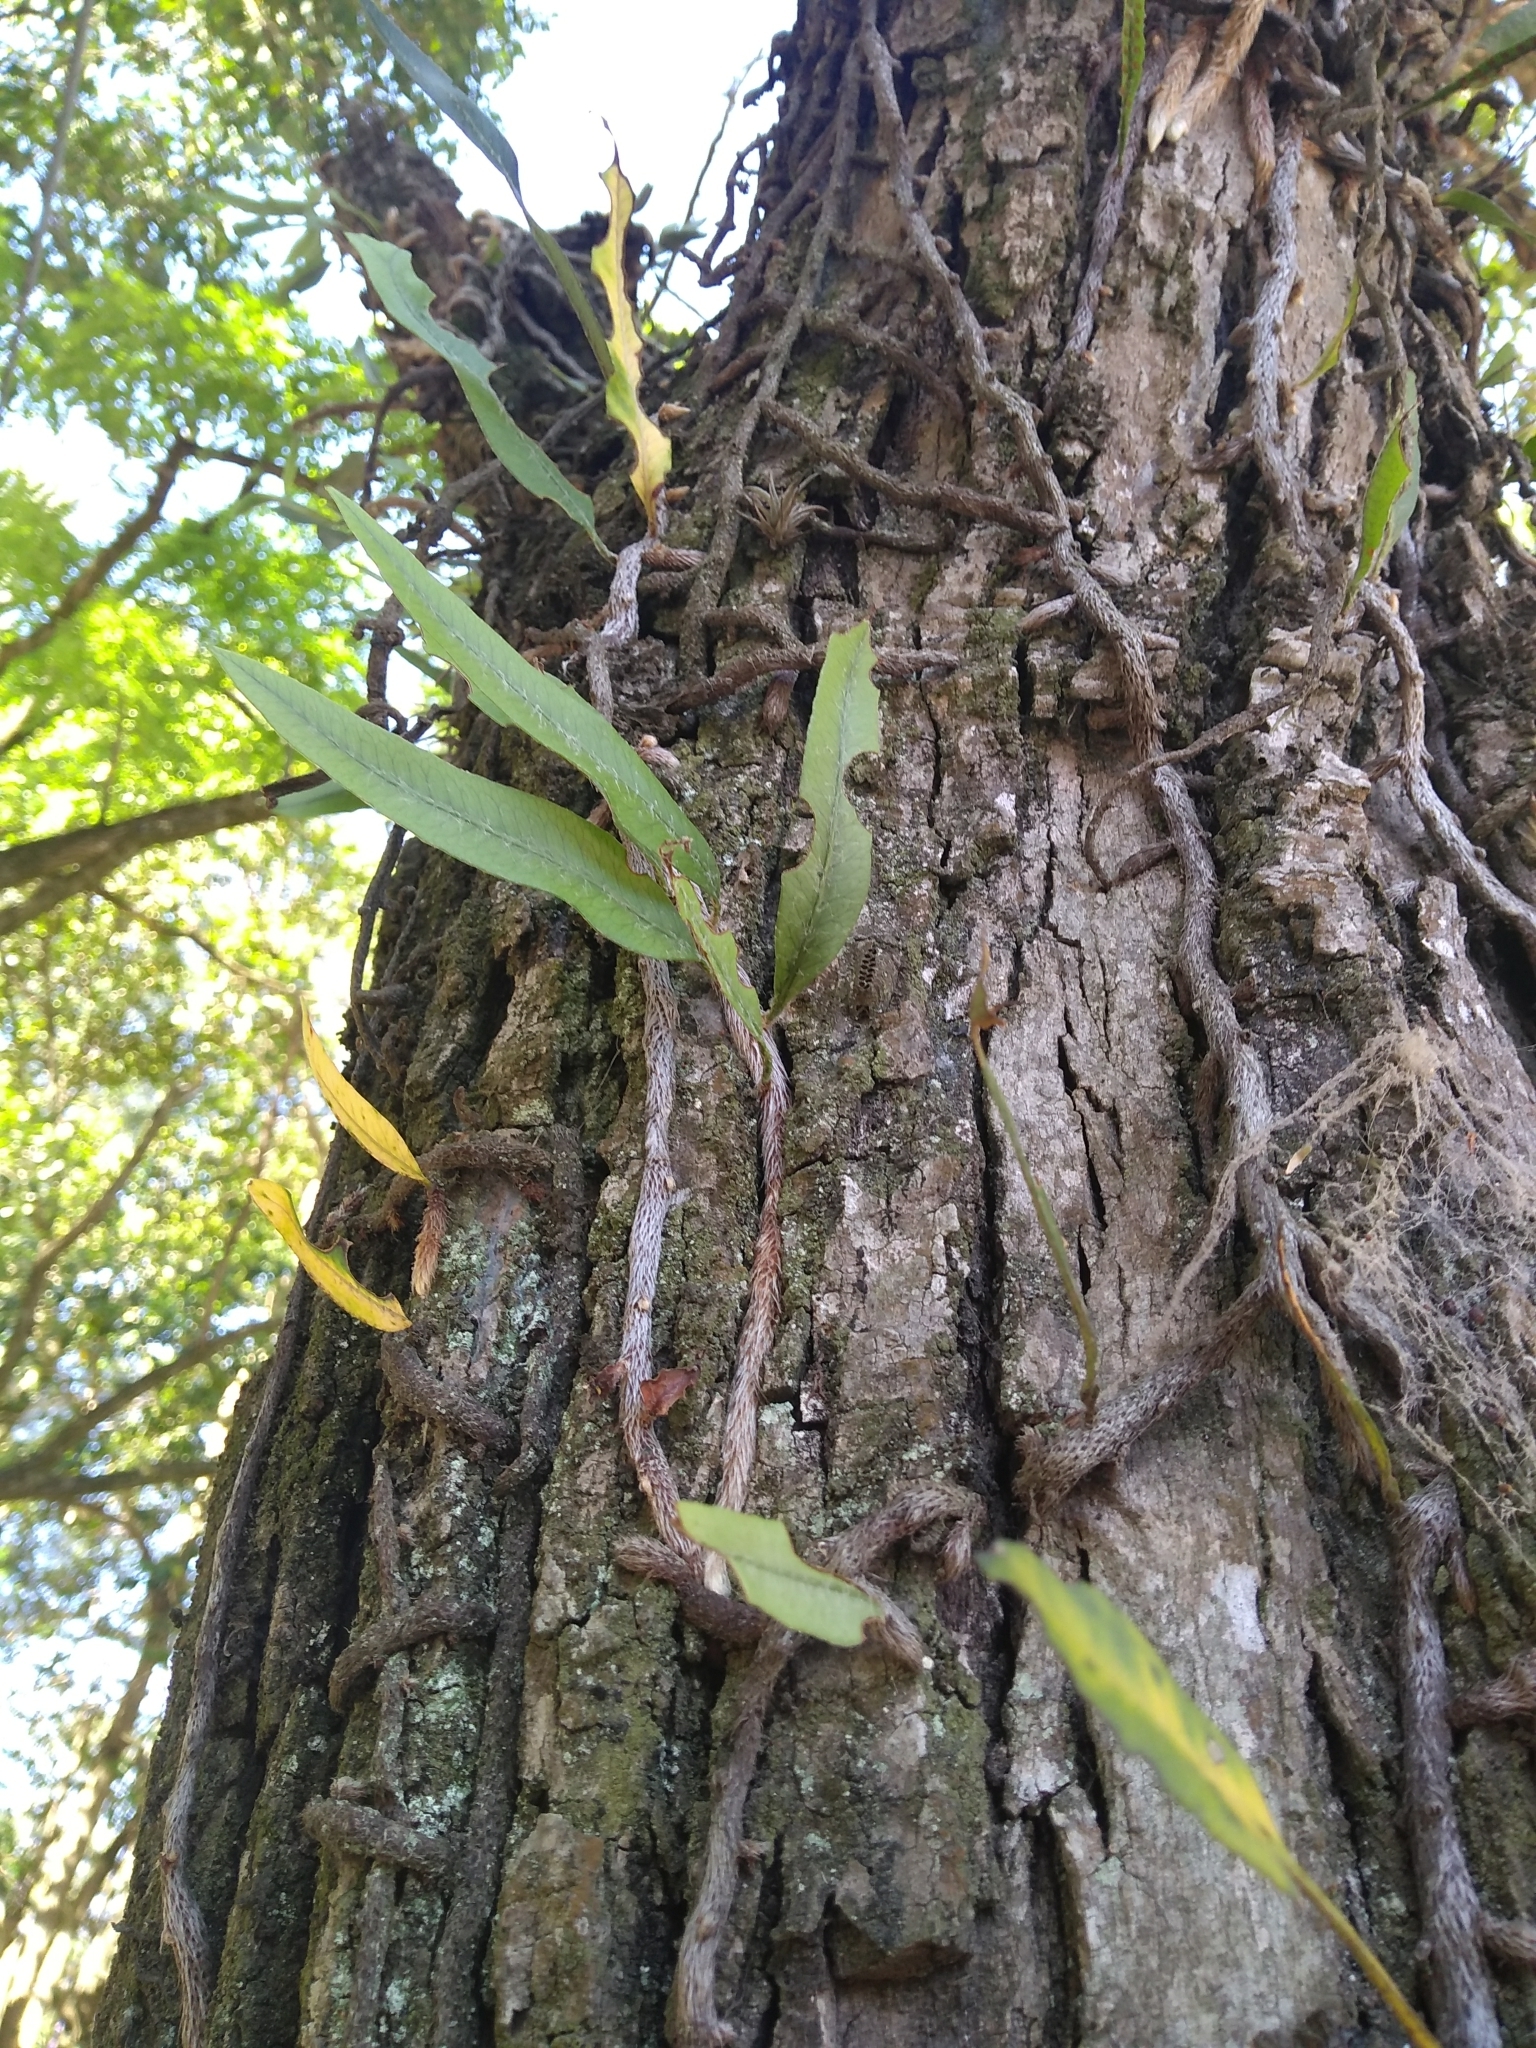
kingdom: Plantae
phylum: Tracheophyta
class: Polypodiopsida
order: Polypodiales
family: Polypodiaceae
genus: Microgramma
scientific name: Microgramma mortoniana
